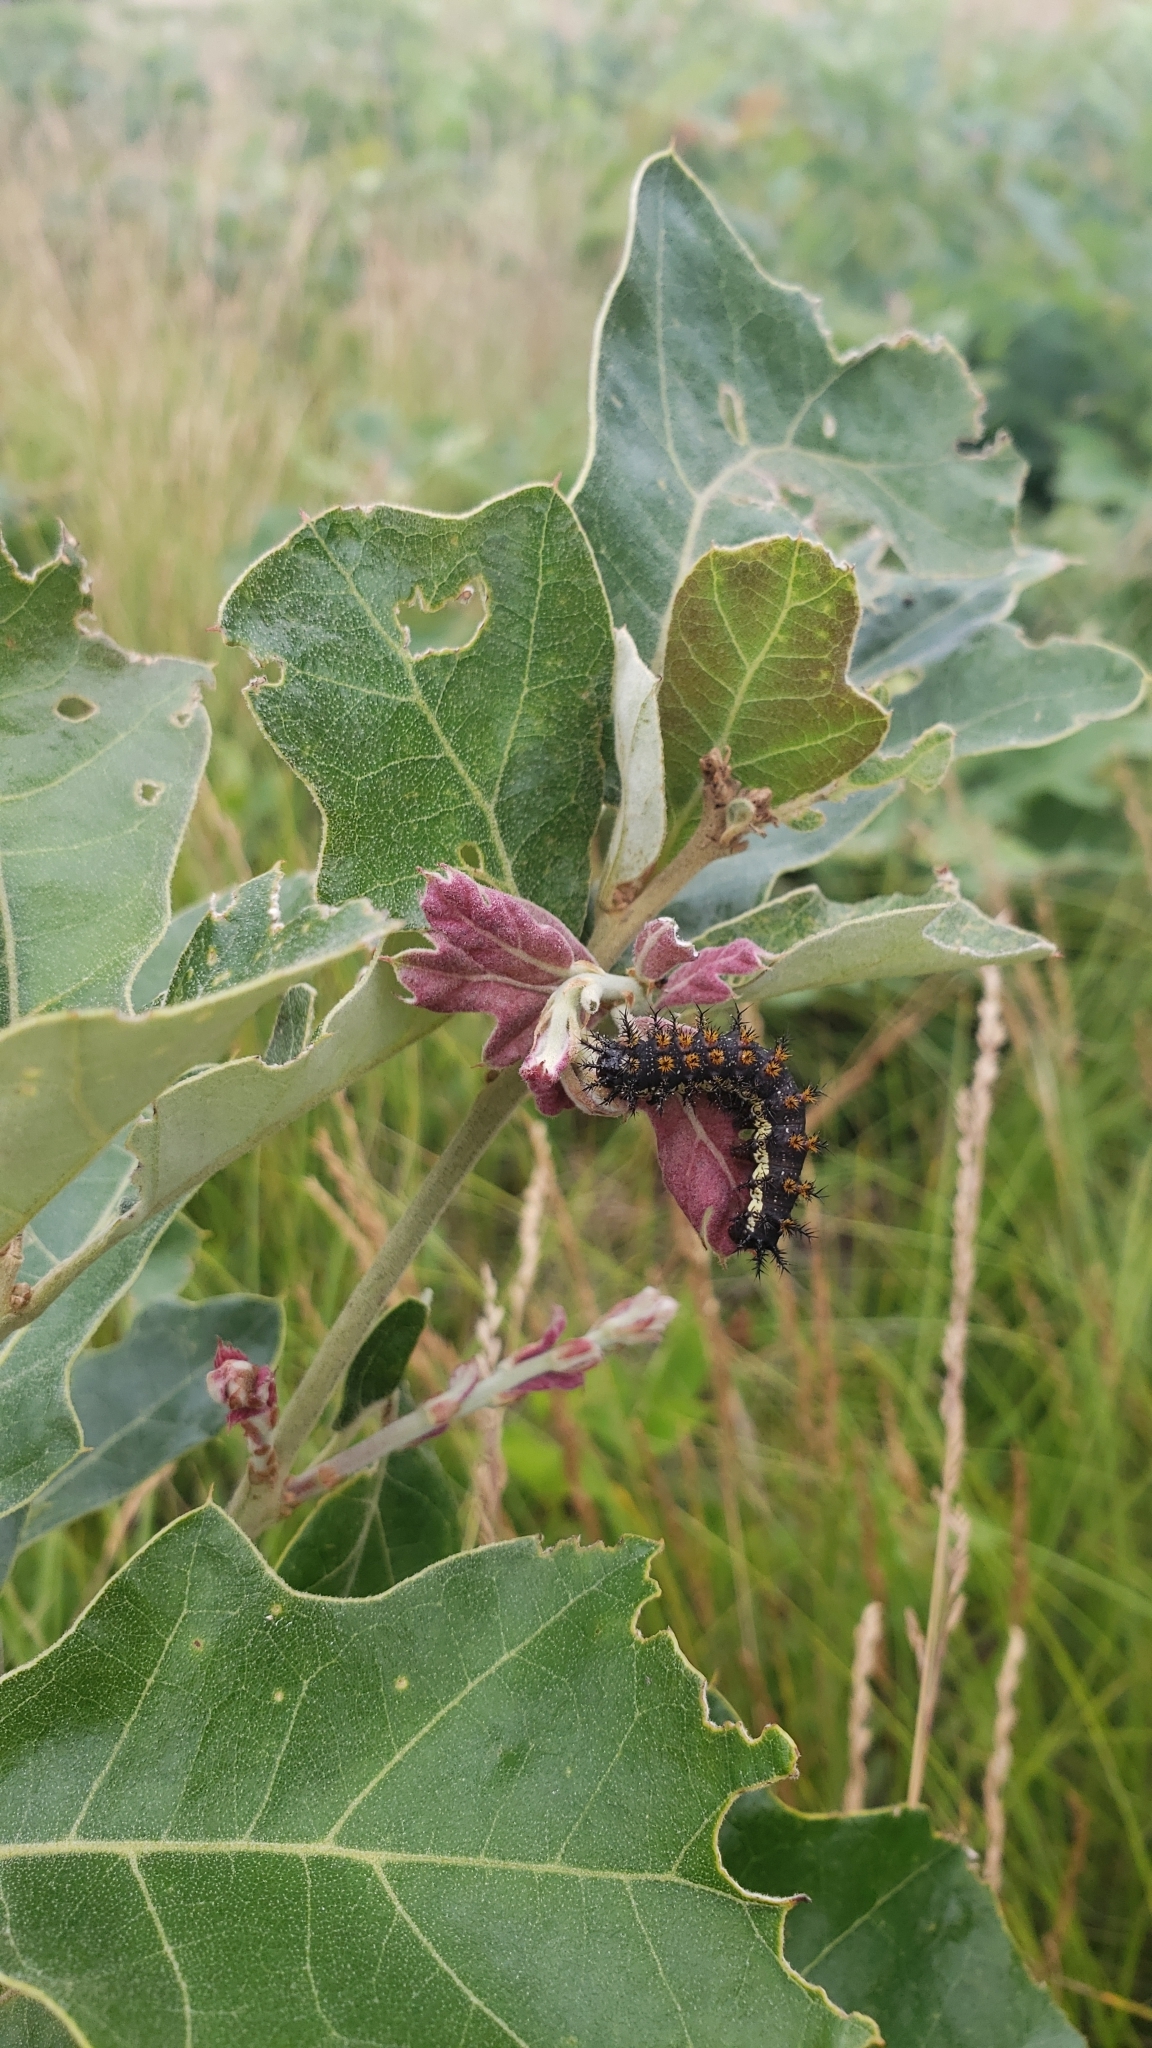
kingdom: Animalia
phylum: Arthropoda
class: Insecta
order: Lepidoptera
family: Saturniidae
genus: Hemileuca
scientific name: Hemileuca maia
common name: Eastern buckmoth
